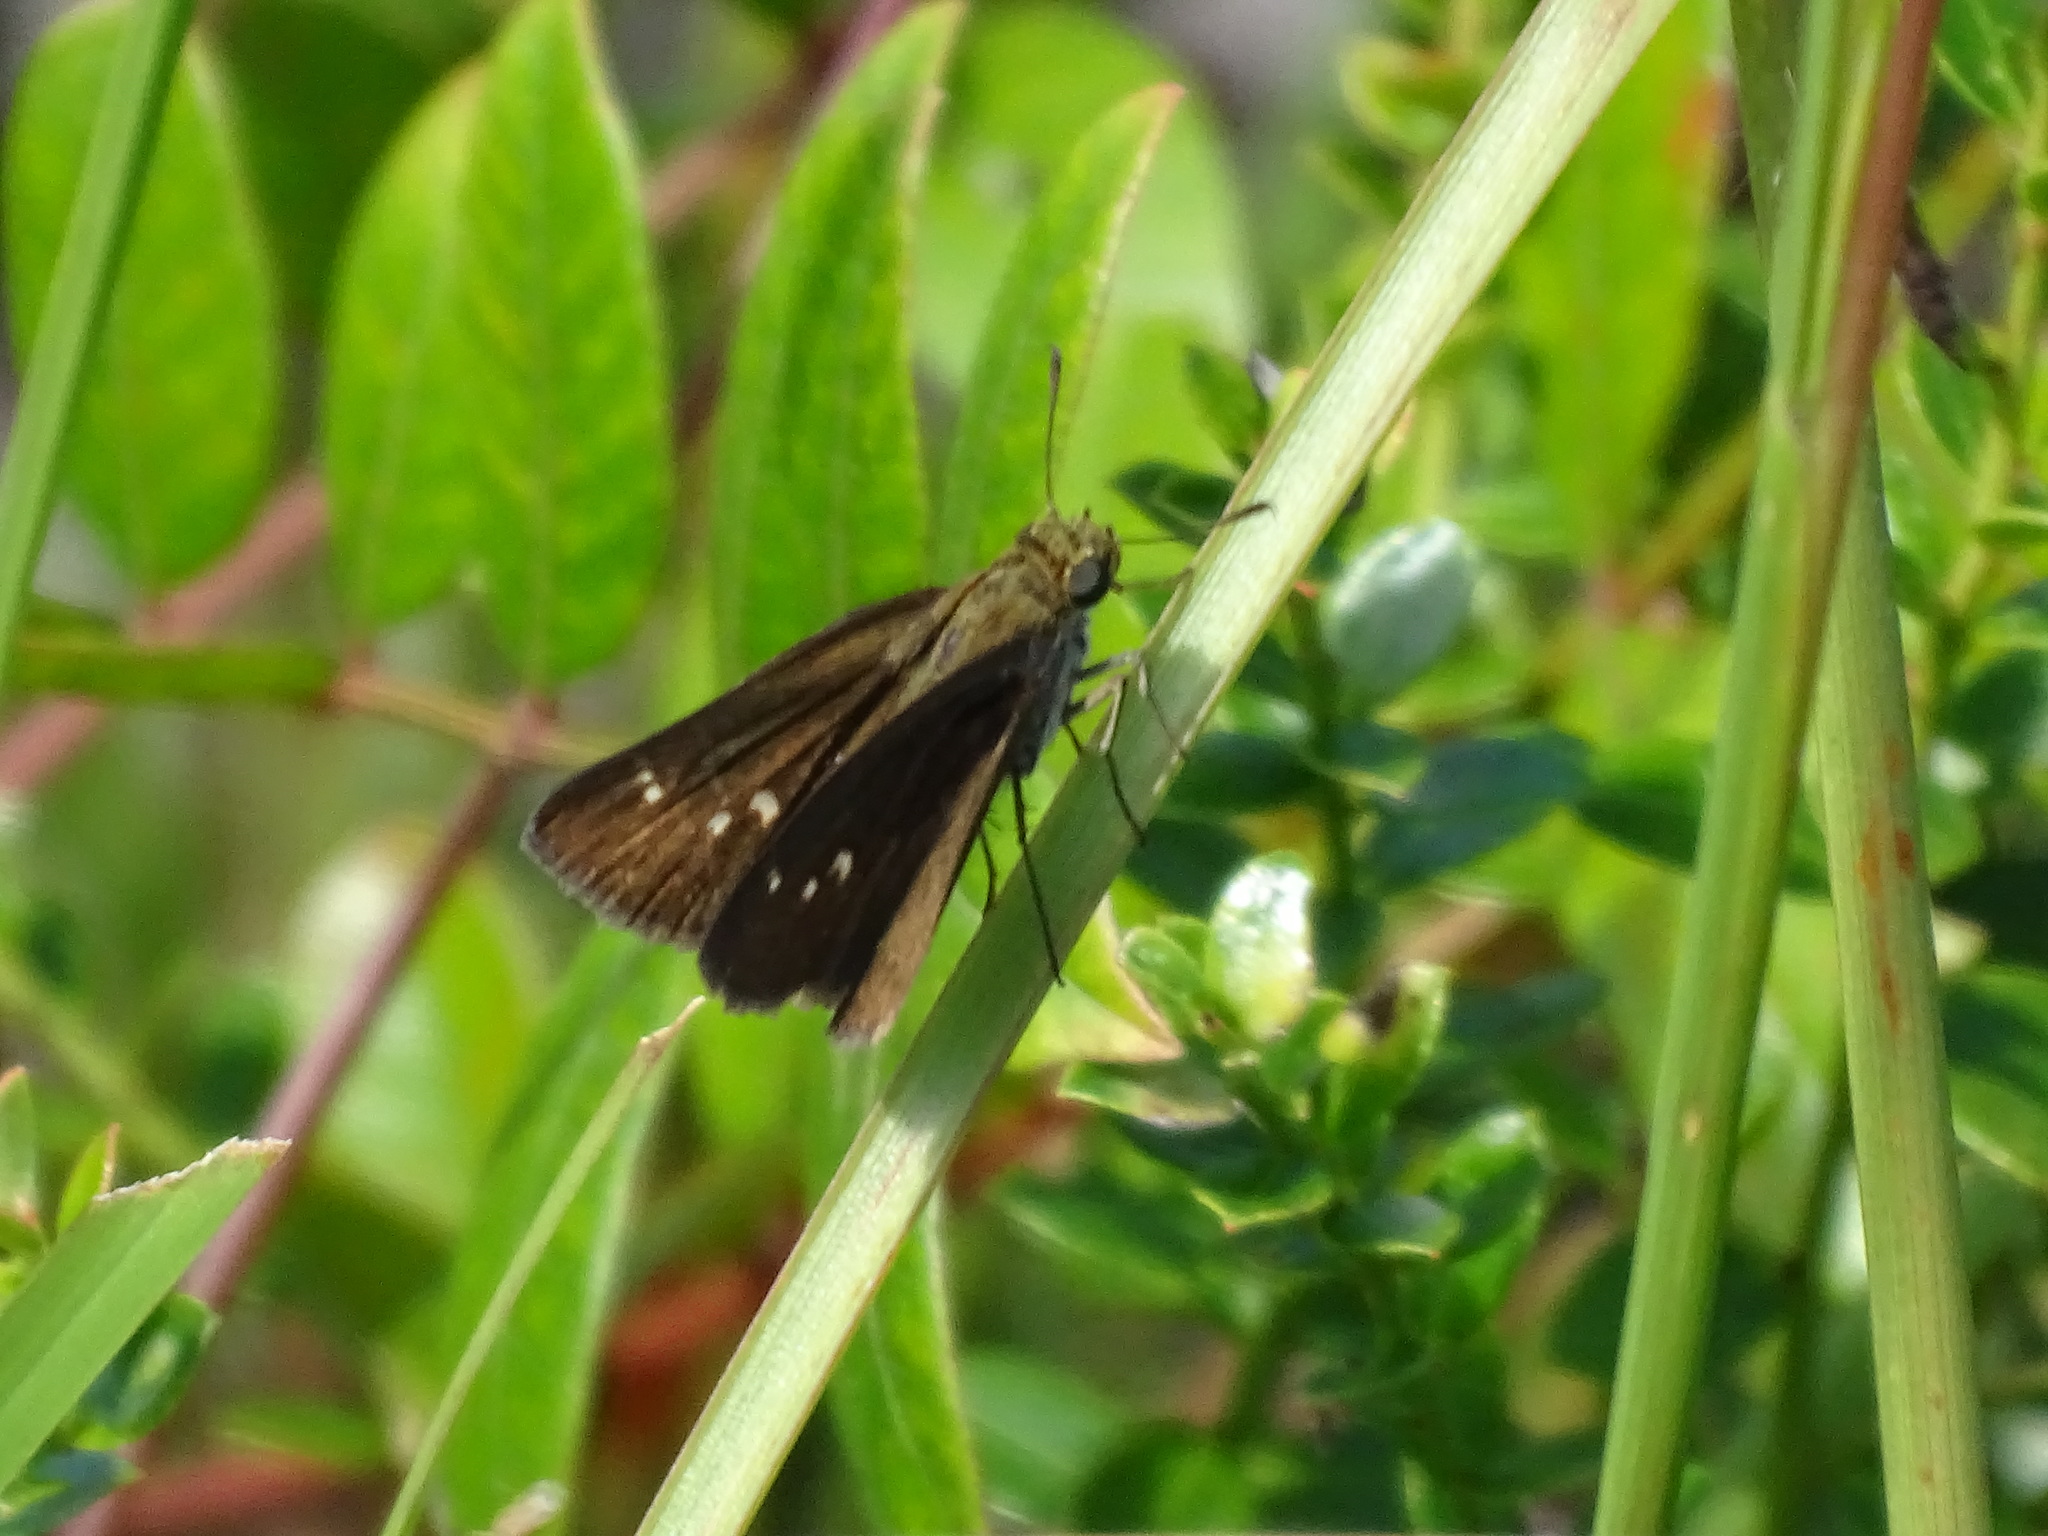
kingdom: Animalia
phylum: Arthropoda
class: Insecta
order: Lepidoptera
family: Hesperiidae
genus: Oligoria
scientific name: Oligoria maculata
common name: Twin-spot skipper
